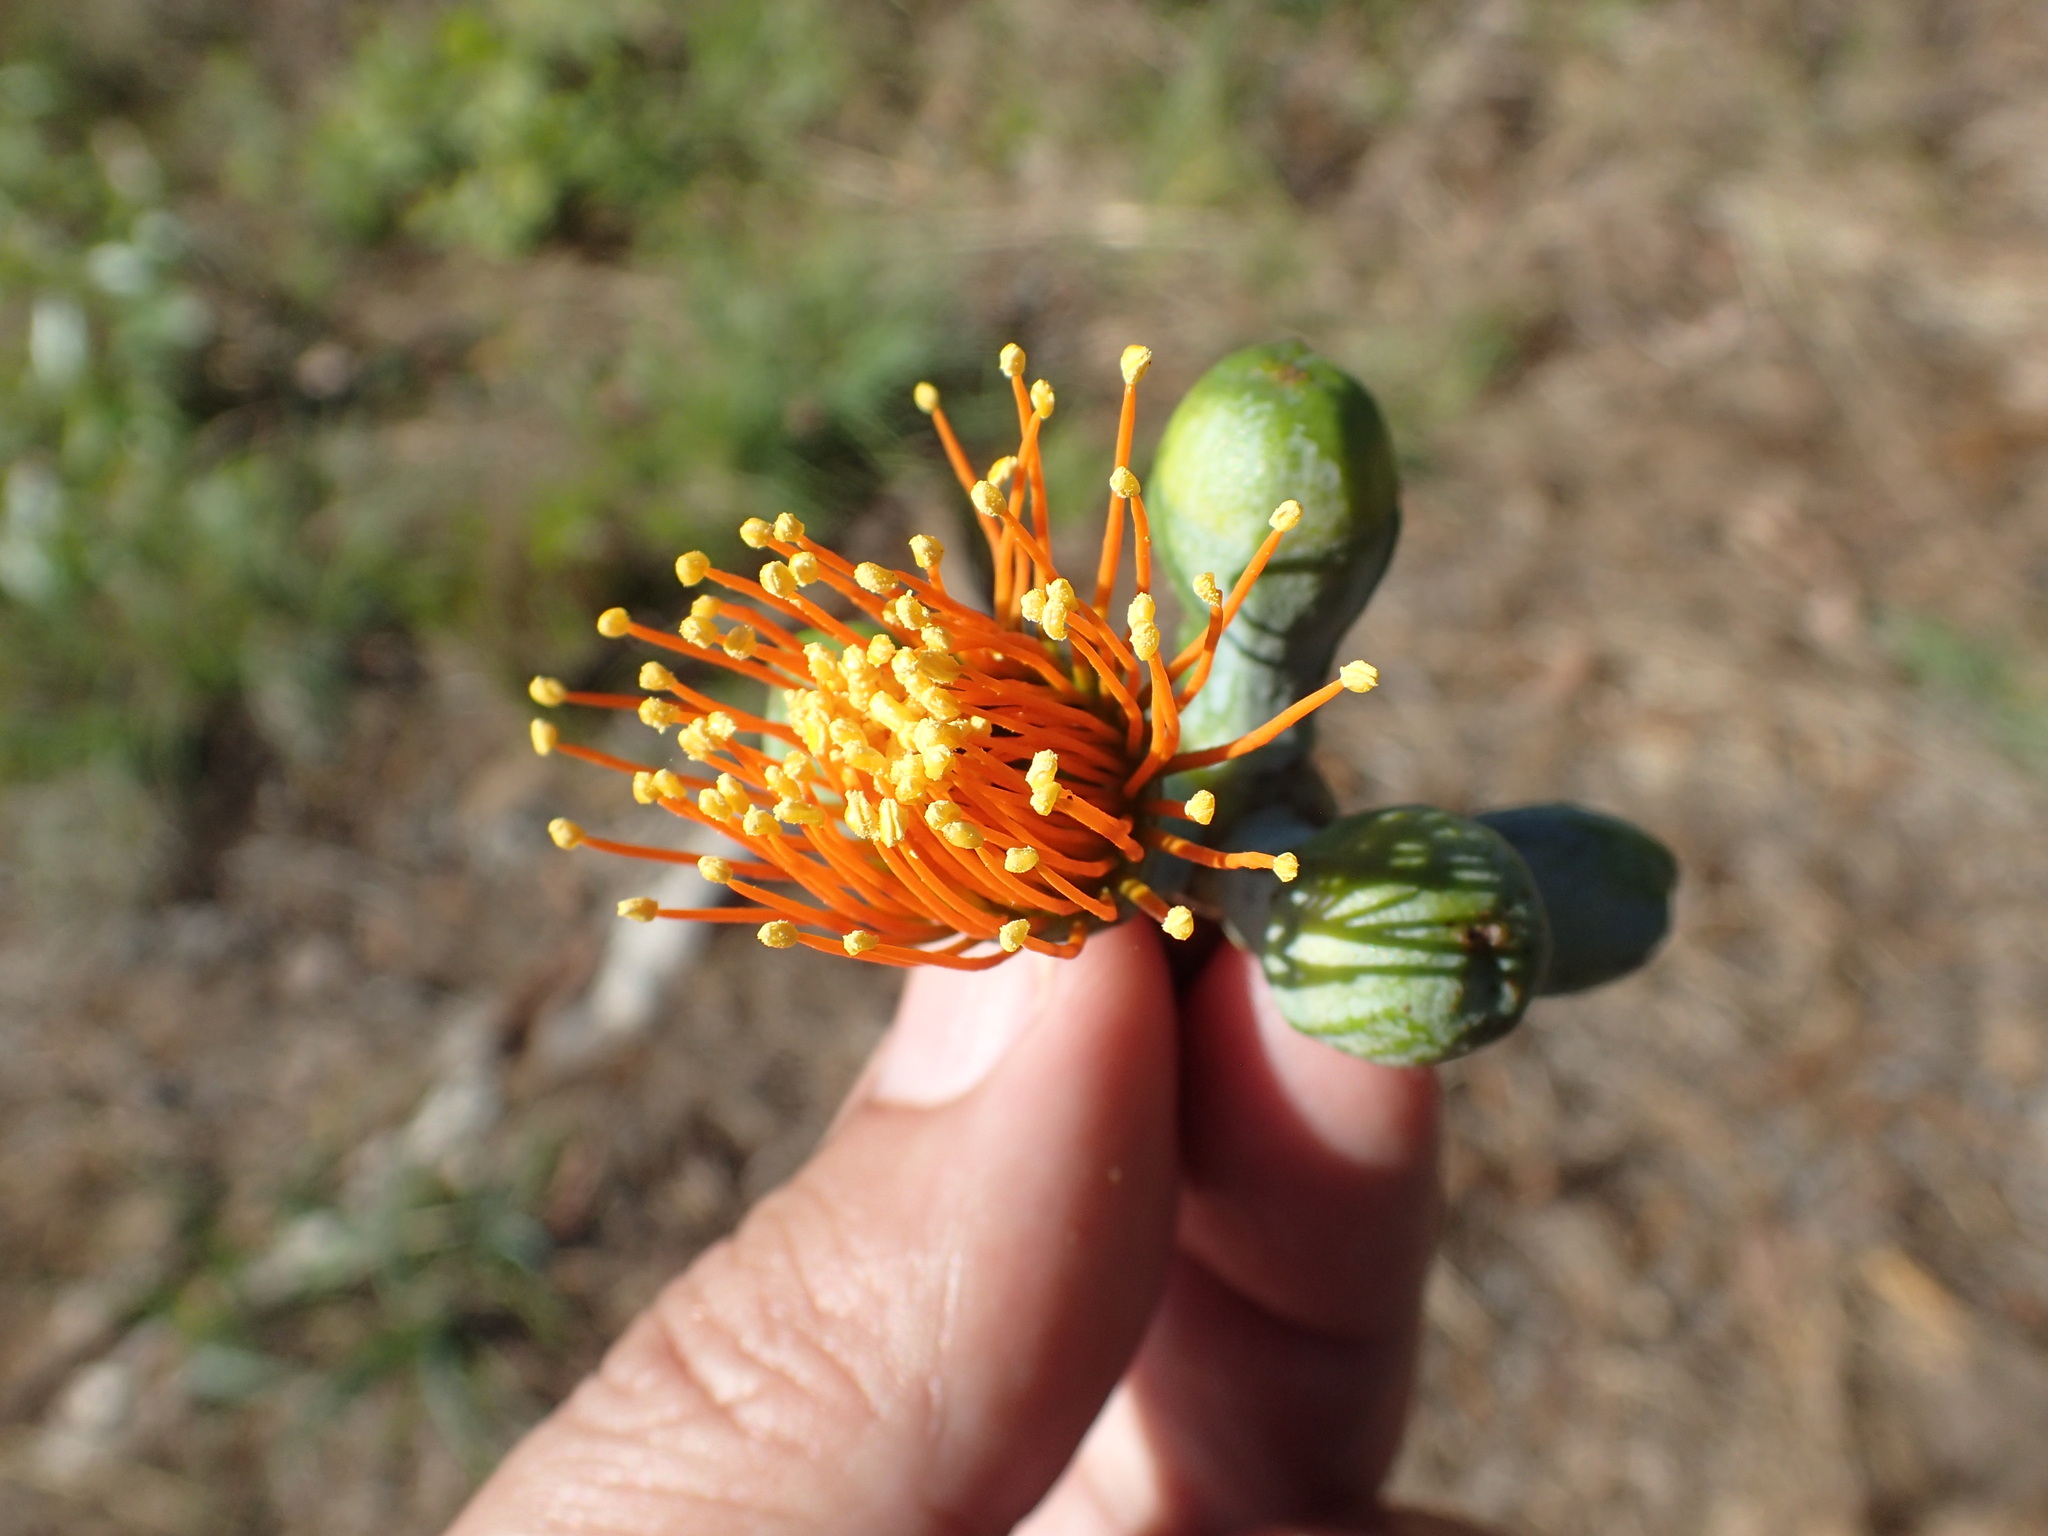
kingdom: Plantae
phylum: Tracheophyta
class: Magnoliopsida
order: Myrtales
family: Myrtaceae
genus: Eucalyptus
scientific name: Eucalyptus miniata
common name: Darwin-woollybutt
